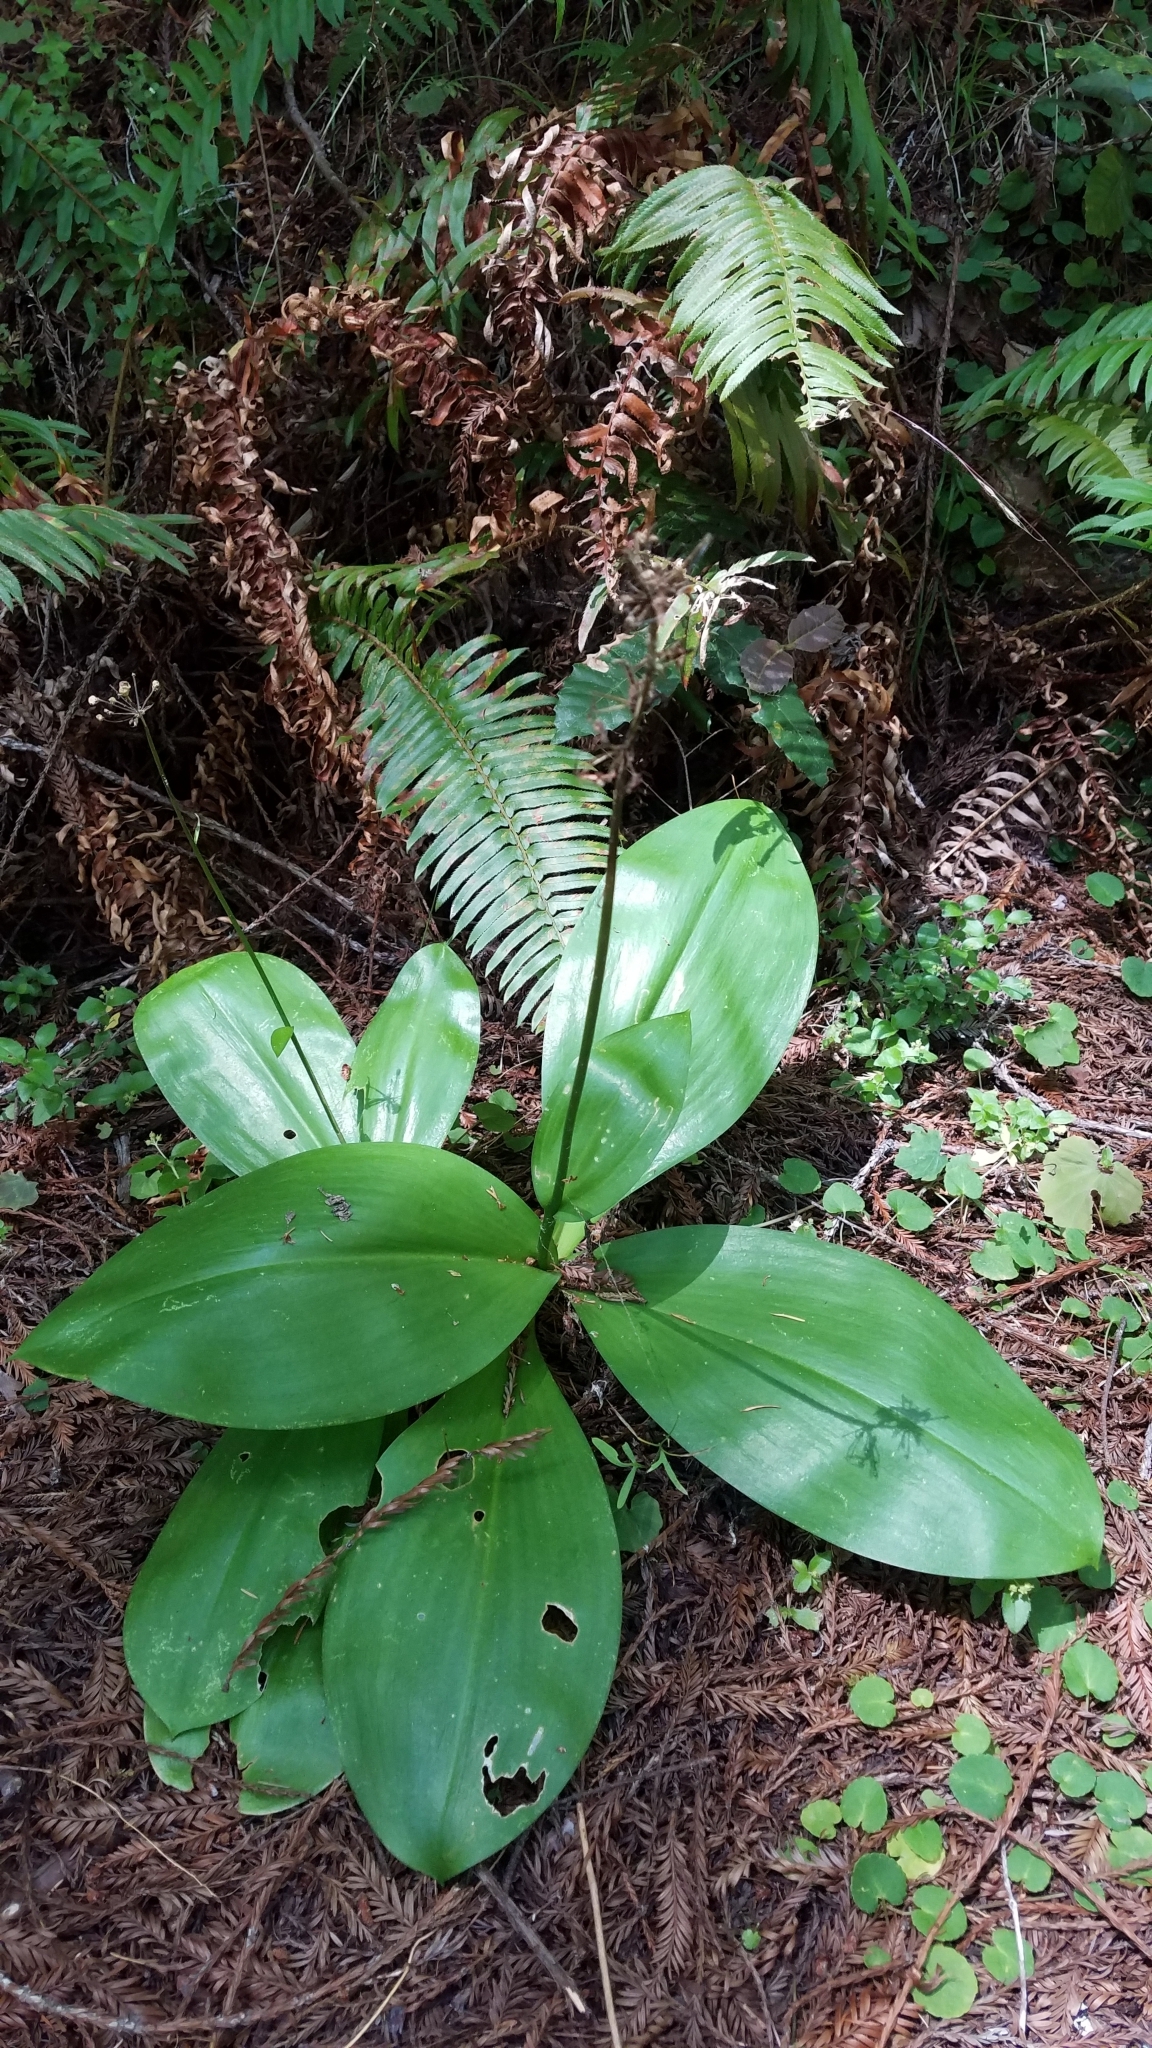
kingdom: Plantae
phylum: Tracheophyta
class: Liliopsida
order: Liliales
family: Liliaceae
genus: Clintonia
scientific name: Clintonia andrewsiana
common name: Red clintonia
